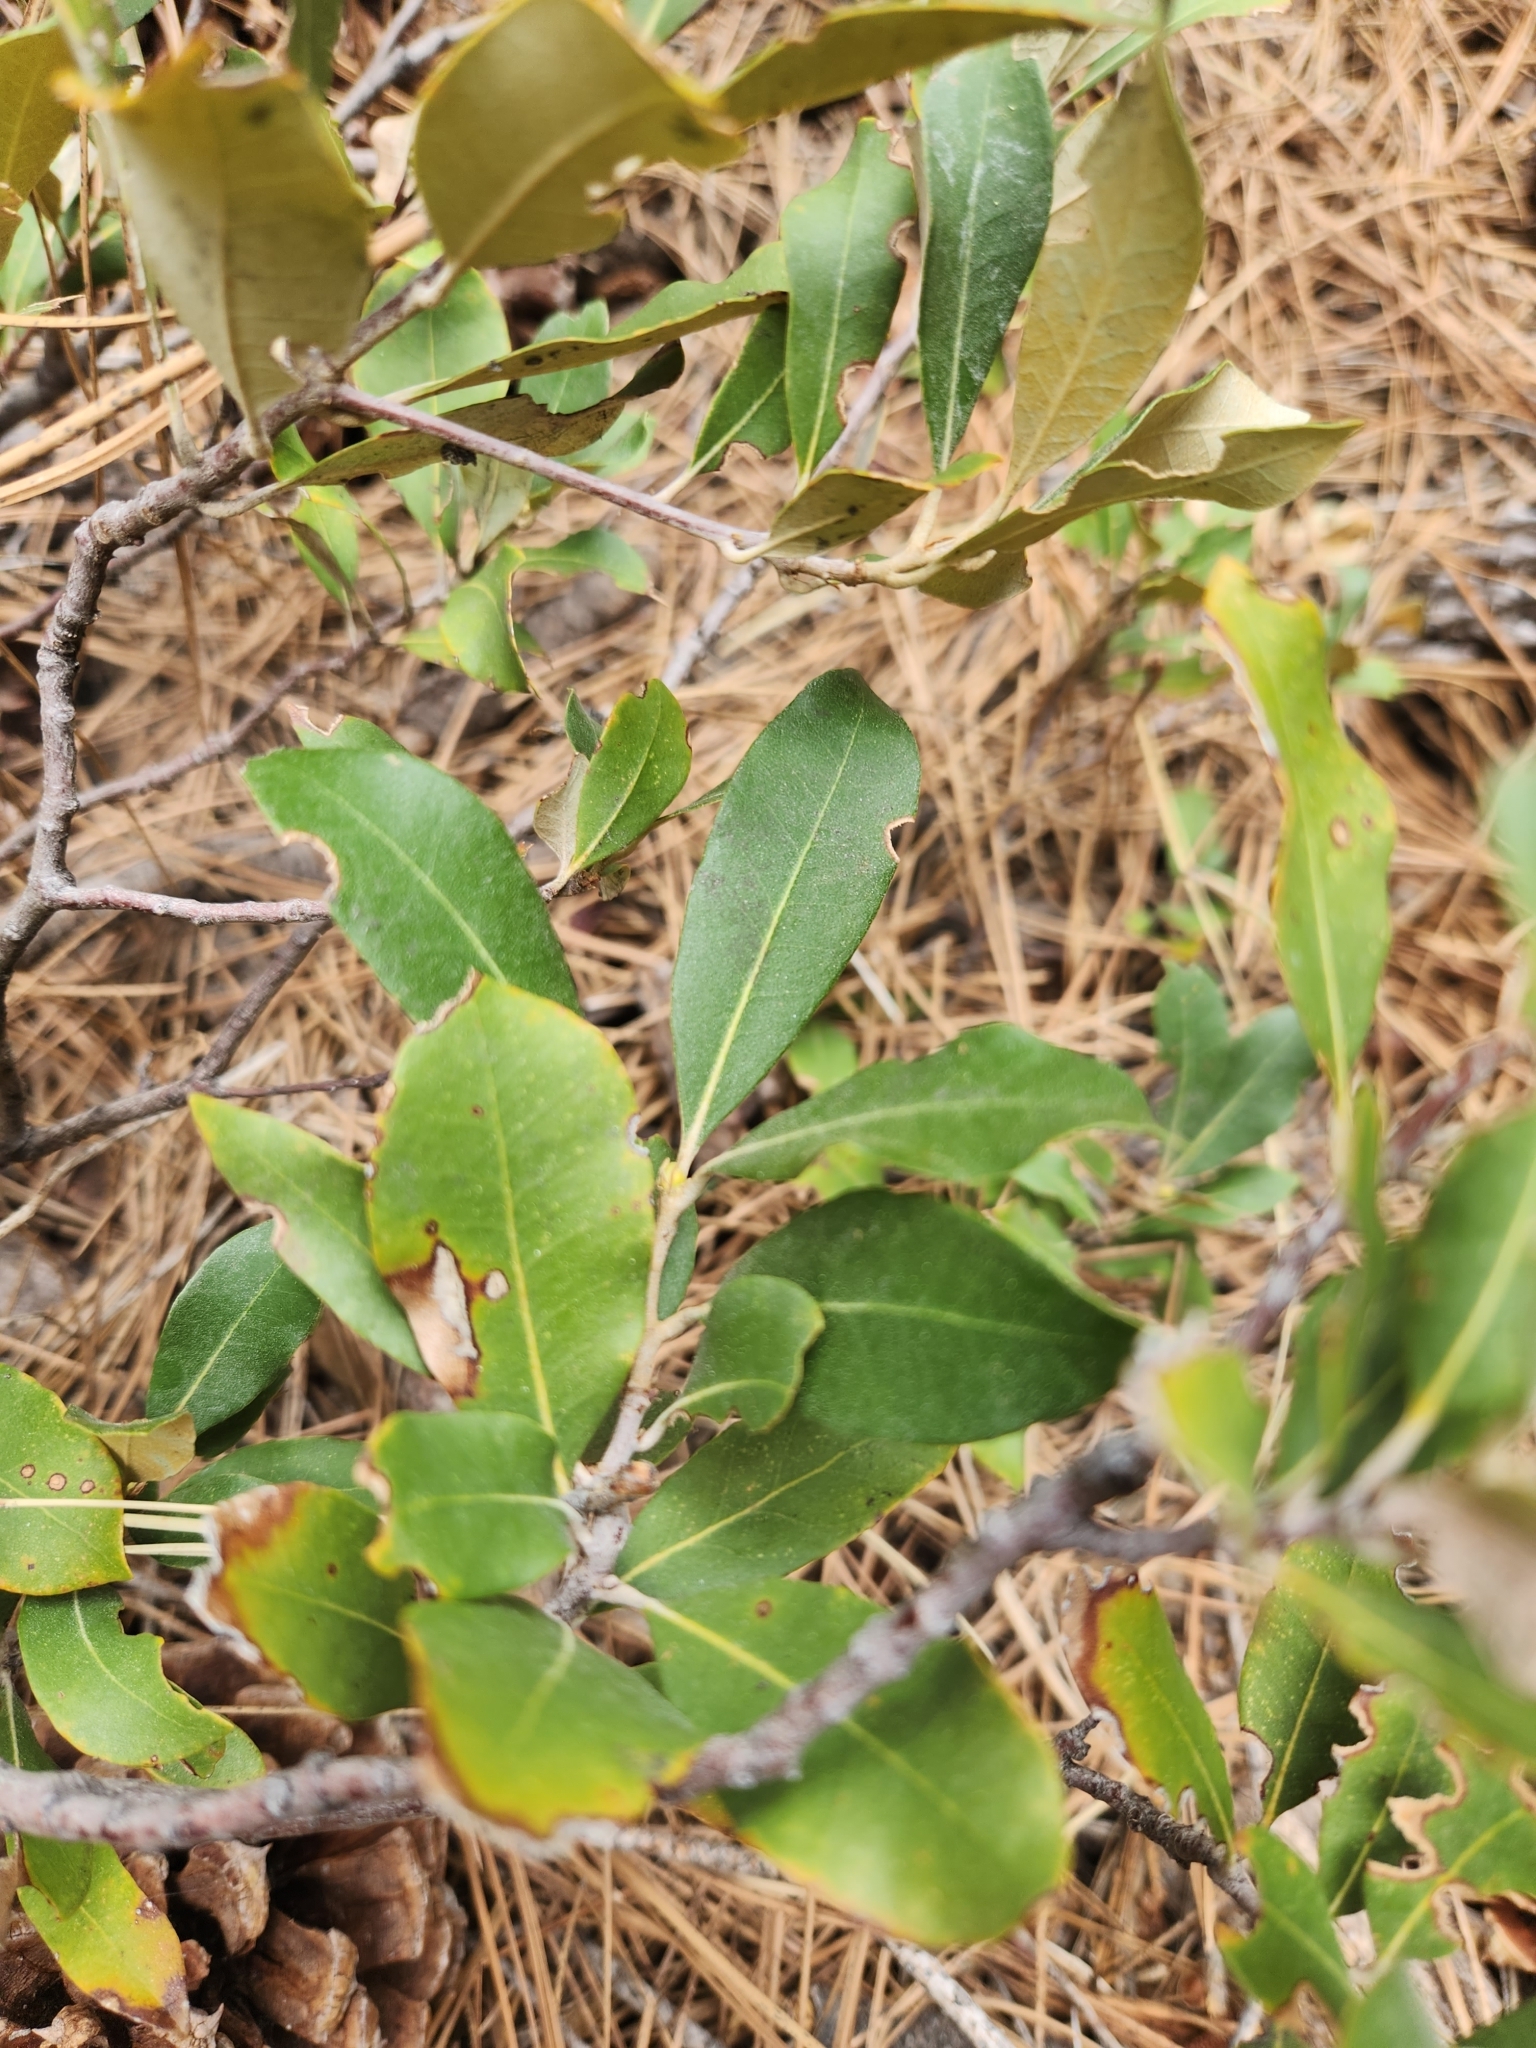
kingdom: Plantae
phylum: Tracheophyta
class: Magnoliopsida
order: Fagales
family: Fagaceae
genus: Chrysolepis
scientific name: Chrysolepis sempervirens
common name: Bush chinquapin
